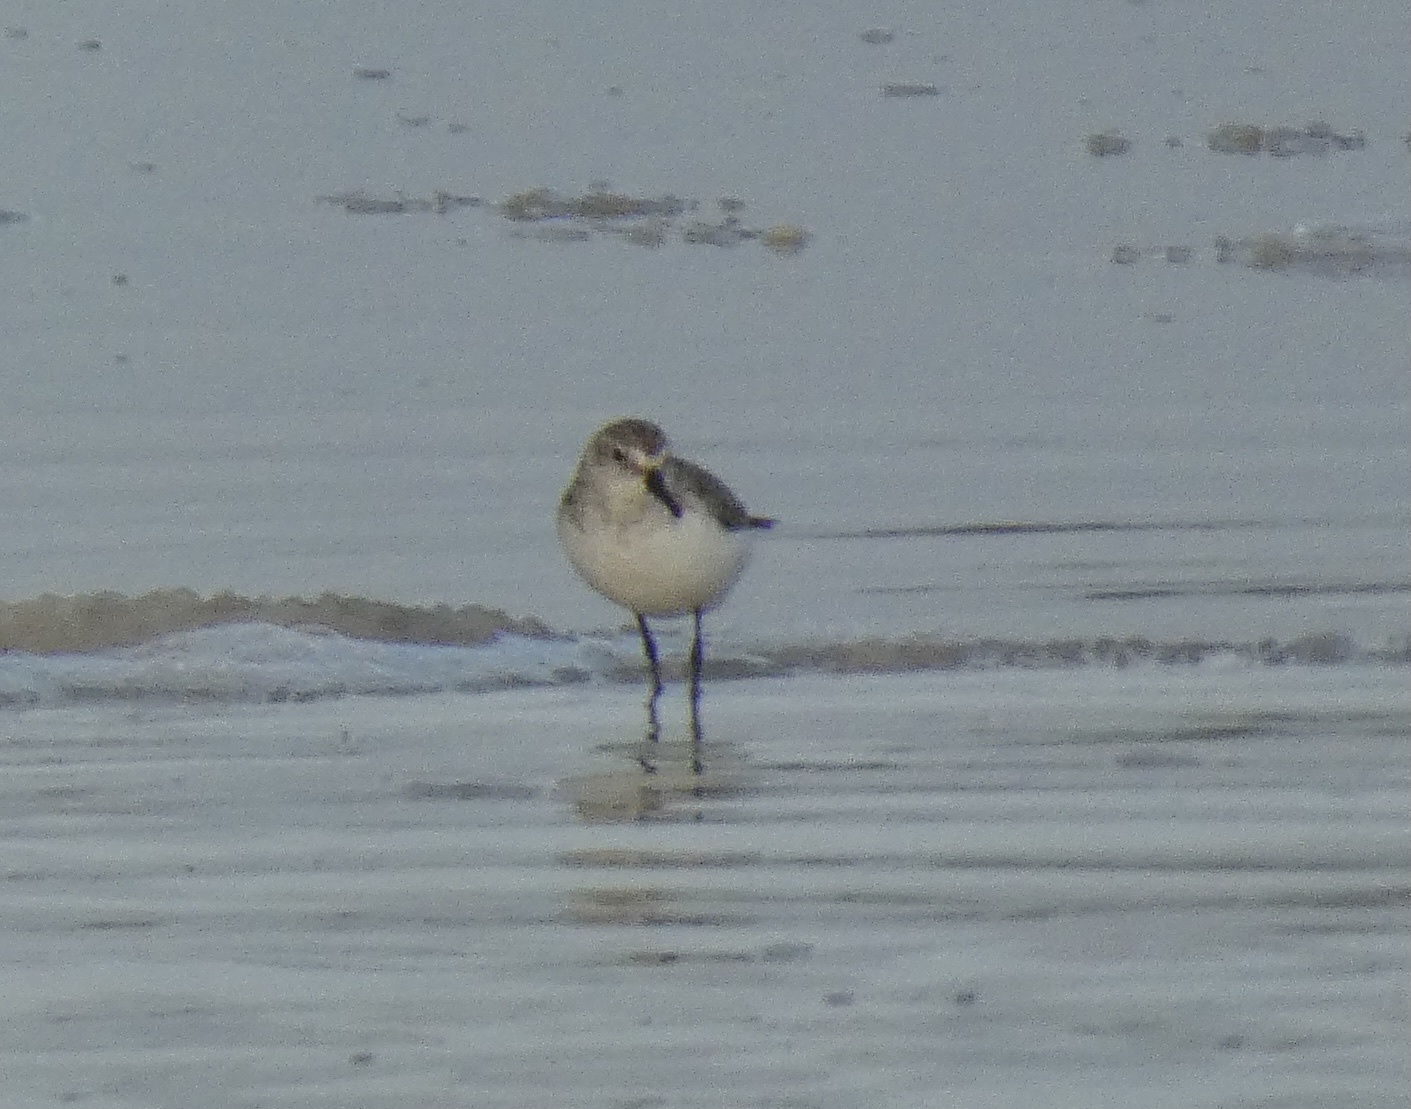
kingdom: Animalia
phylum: Chordata
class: Aves
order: Charadriiformes
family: Scolopacidae
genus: Calidris
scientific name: Calidris pusilla
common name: Semipalmated sandpiper
